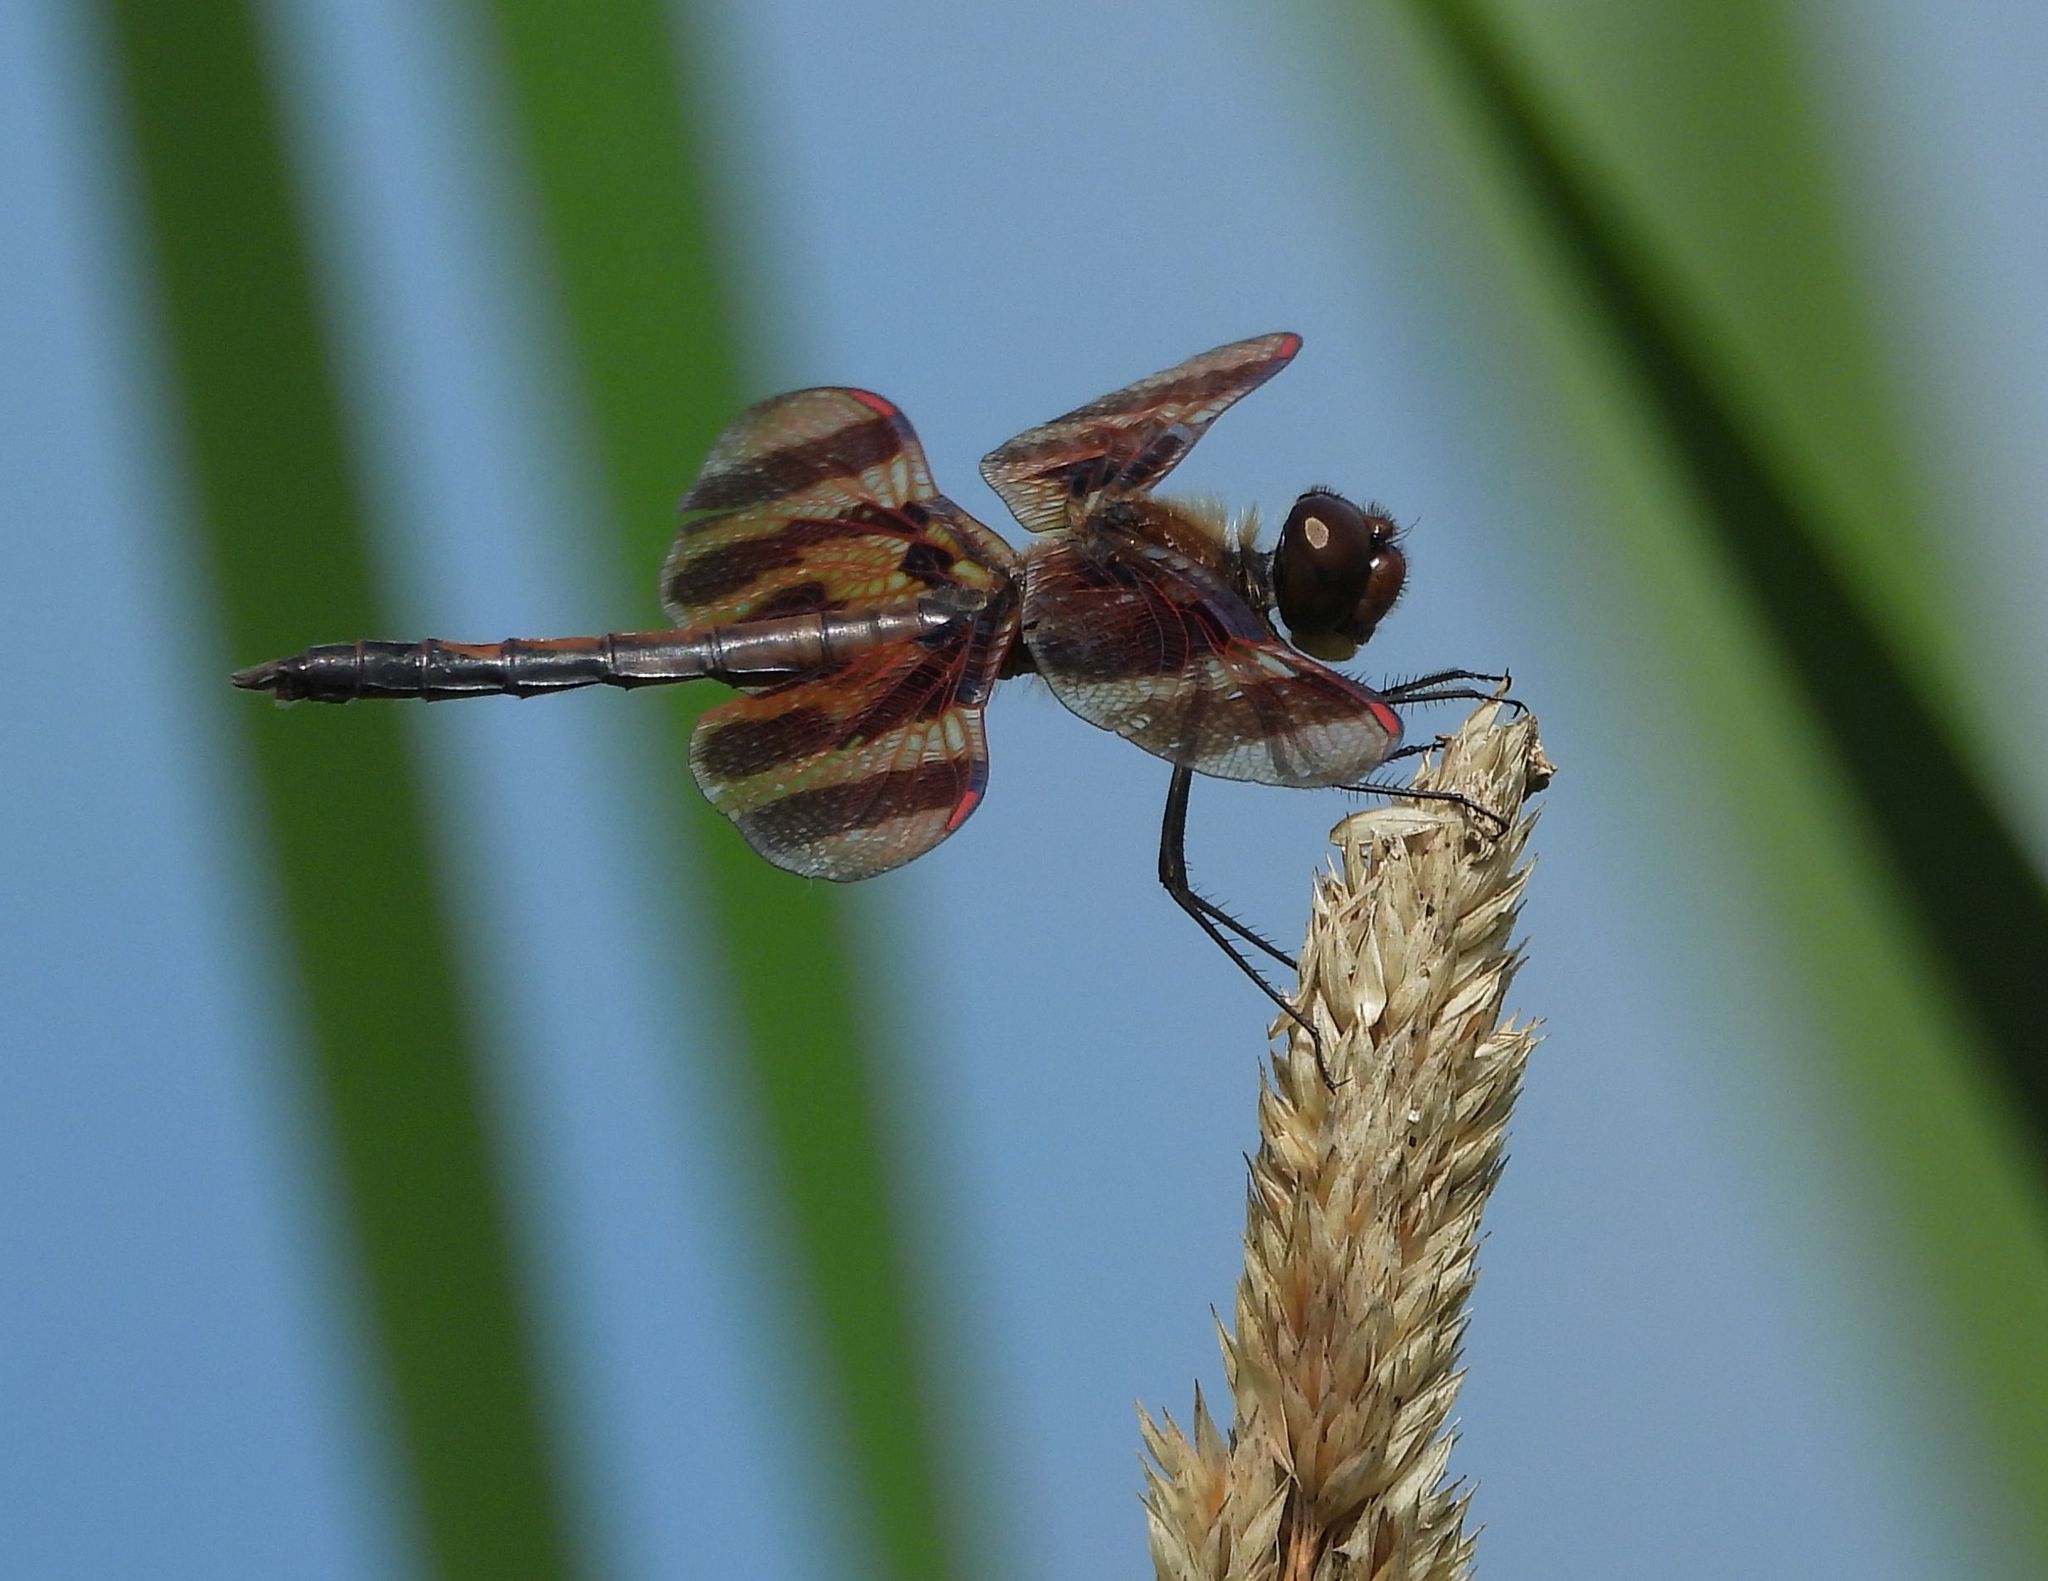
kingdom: Animalia
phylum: Arthropoda
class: Insecta
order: Odonata
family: Libellulidae
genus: Celithemis
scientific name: Celithemis eponina
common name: Halloween pennant
